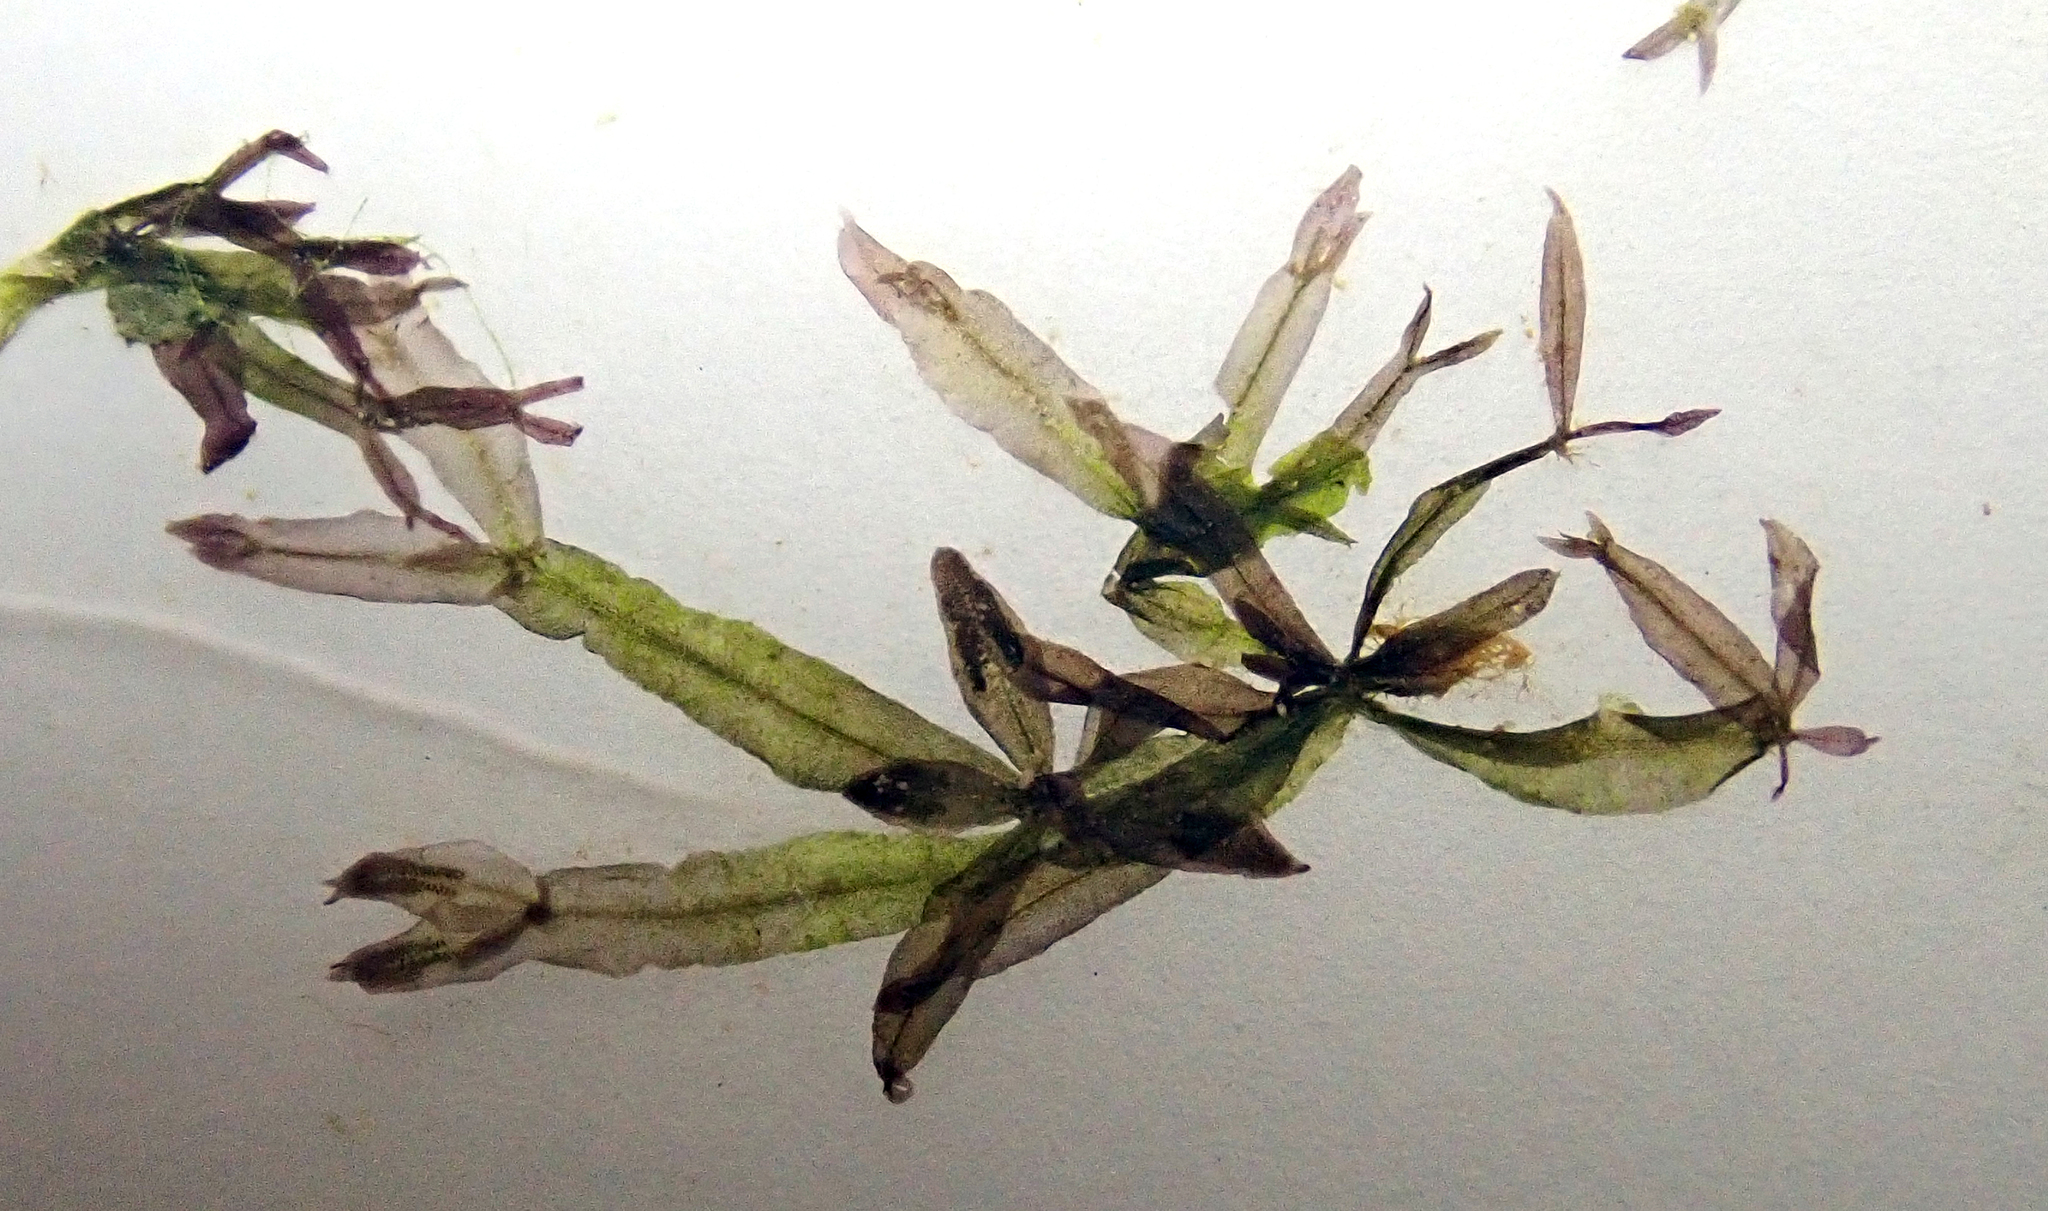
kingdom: Plantae
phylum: Rhodophyta
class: Florideophyceae
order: Ceramiales
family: Delesseriaceae
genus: Caloglossa
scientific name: Caloglossa vieillardii
